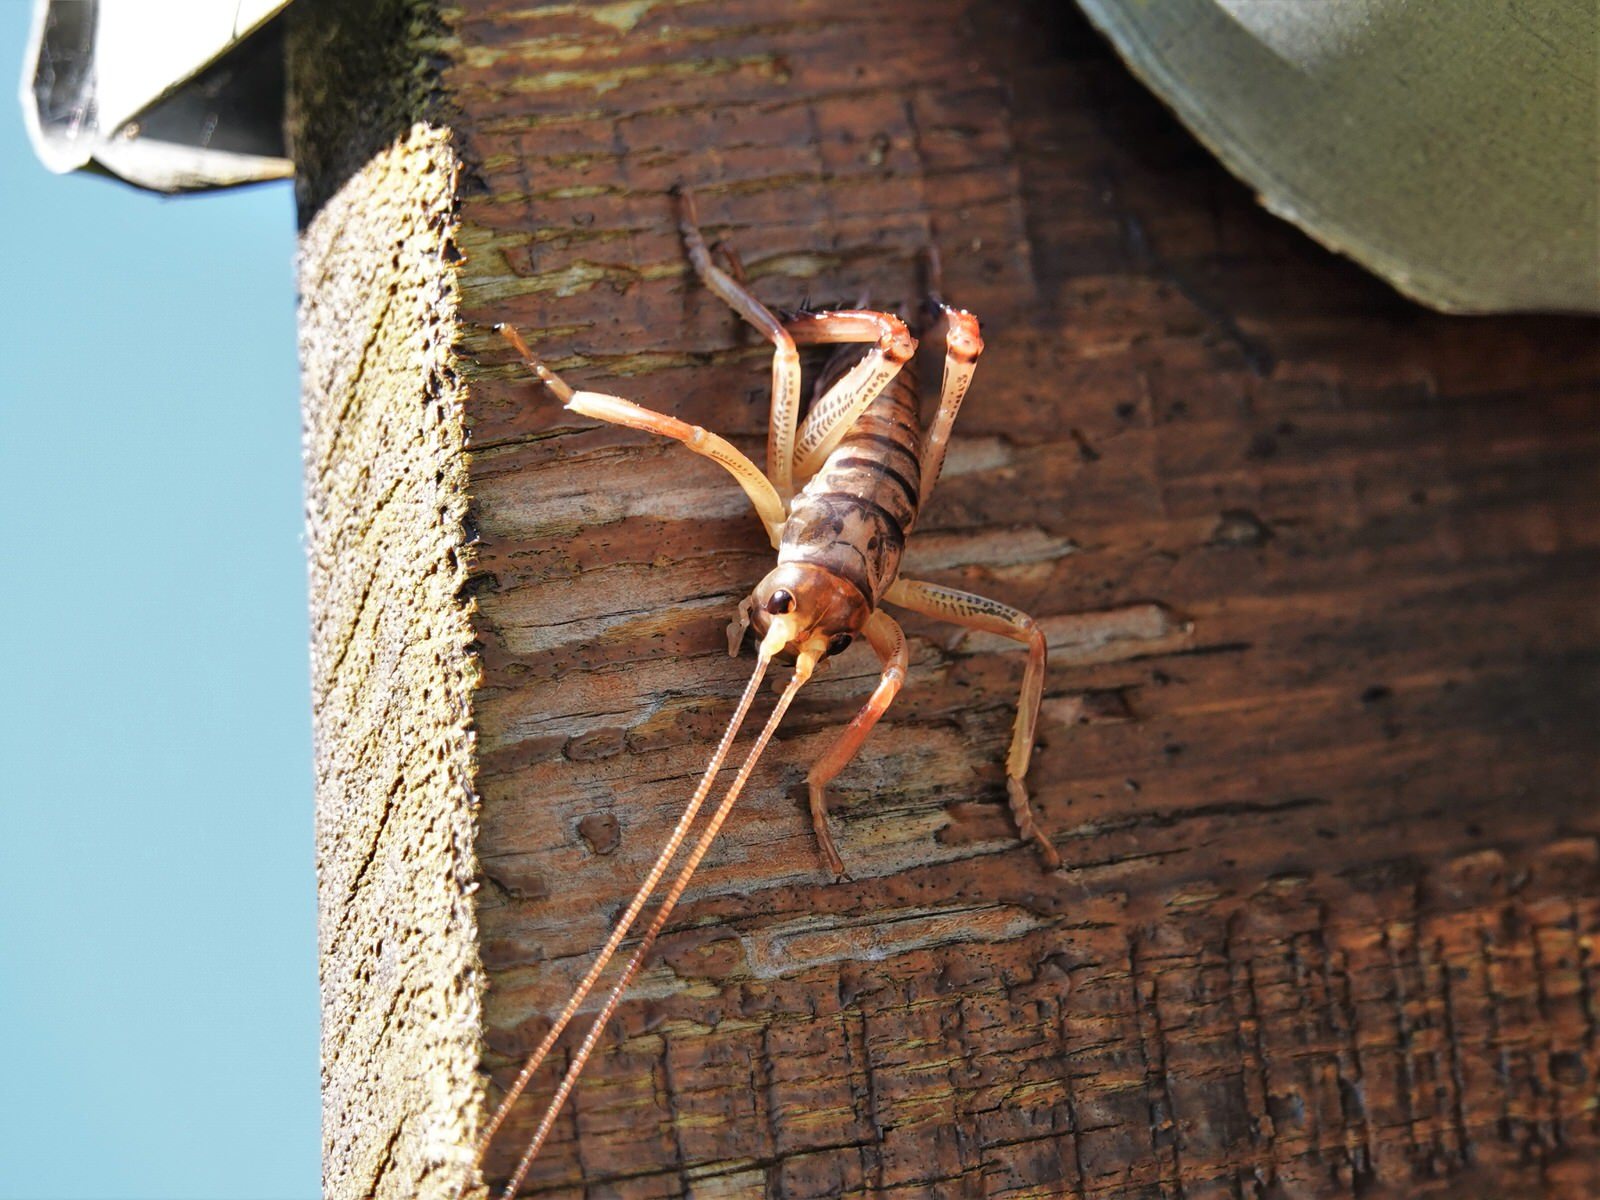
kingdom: Animalia
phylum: Arthropoda
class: Insecta
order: Orthoptera
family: Anostostomatidae
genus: Hemideina
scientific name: Hemideina thoracica
